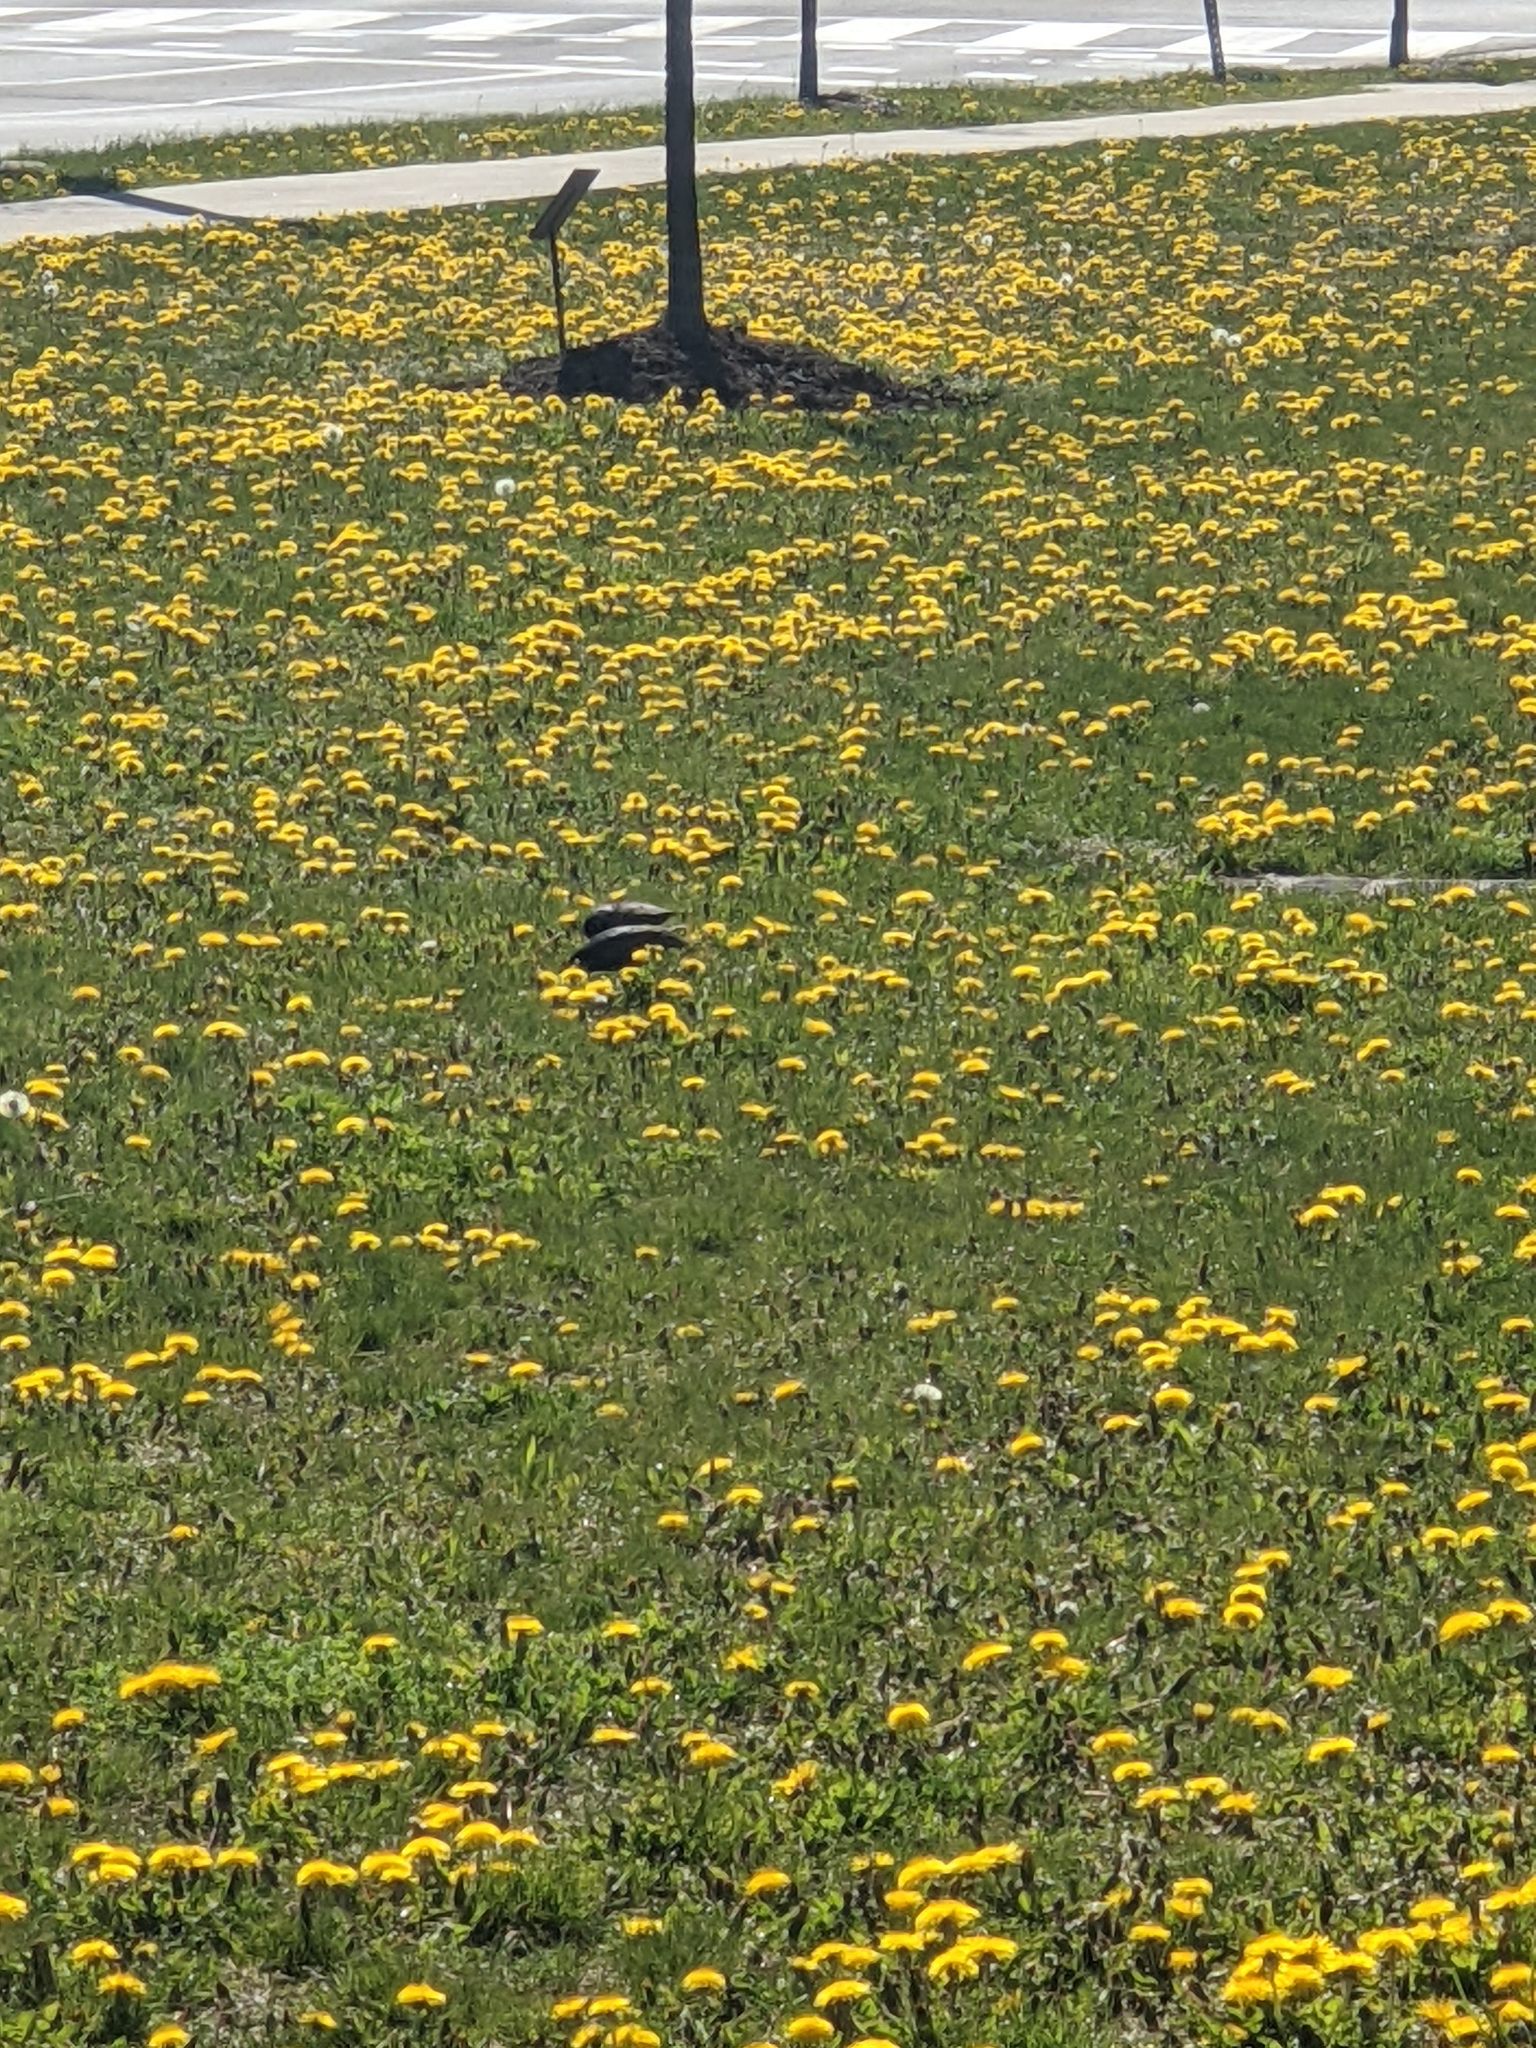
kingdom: Animalia
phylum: Chordata
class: Aves
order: Passeriformes
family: Sturnidae
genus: Sturnus
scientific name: Sturnus vulgaris
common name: Common starling
